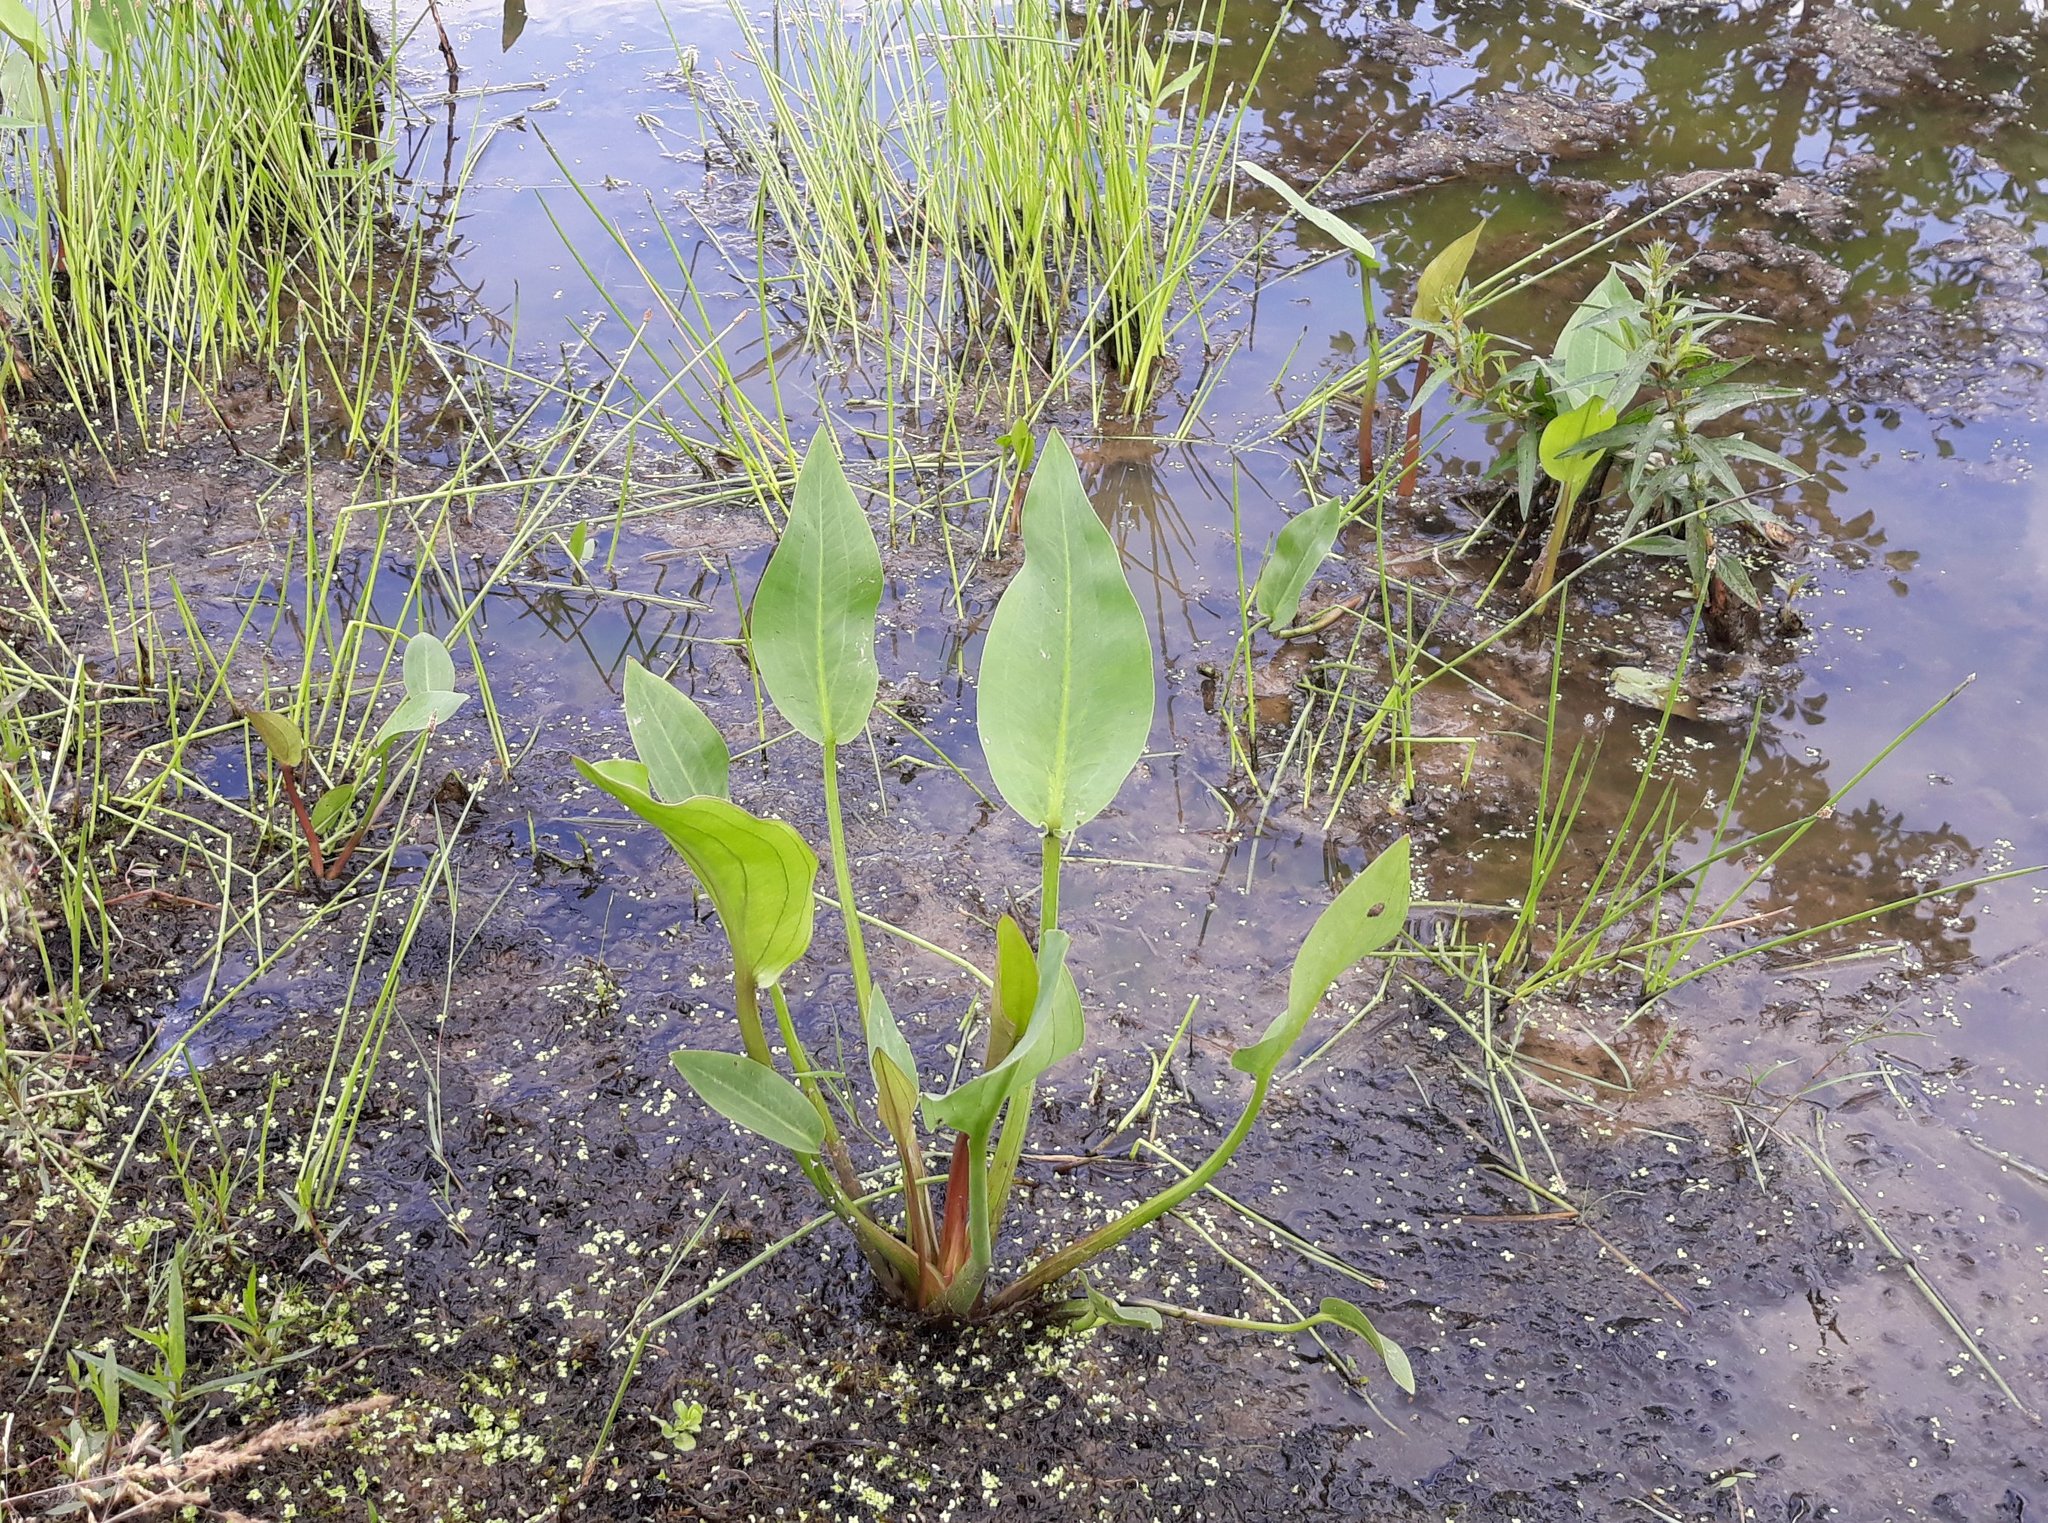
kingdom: Plantae
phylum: Tracheophyta
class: Liliopsida
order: Alismatales
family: Alismataceae
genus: Alisma
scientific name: Alisma plantago-aquatica
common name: Water-plantain
